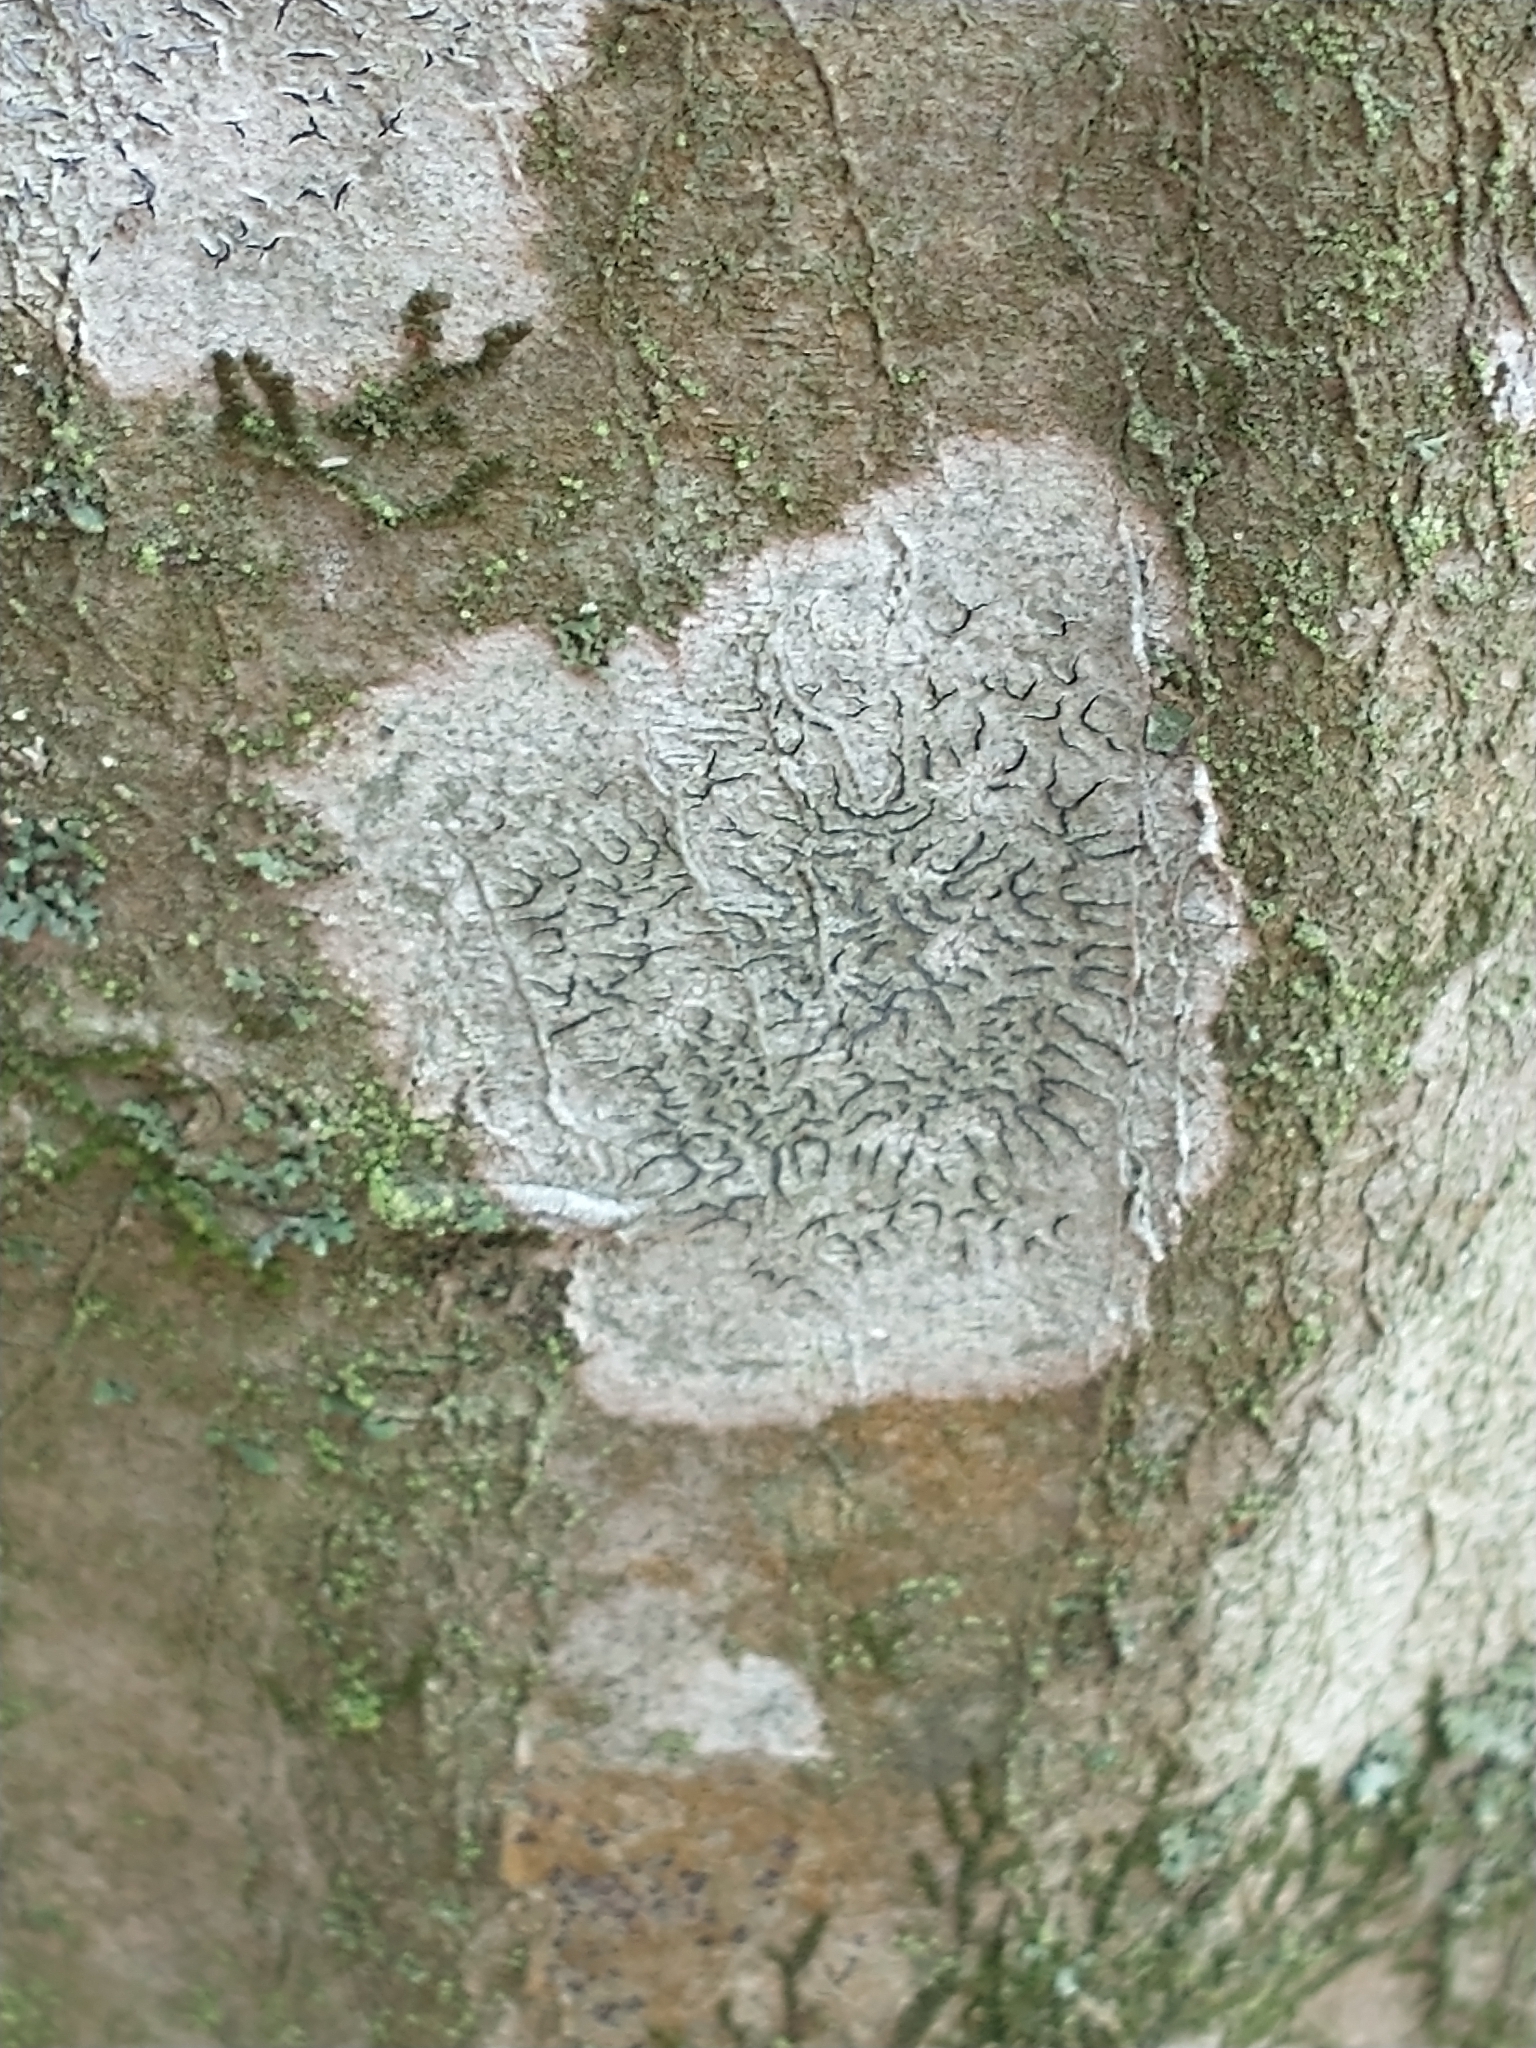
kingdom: Fungi
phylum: Ascomycota
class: Lecanoromycetes
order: Ostropales
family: Graphidaceae
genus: Graphis
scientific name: Graphis scripta
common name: Script lichen
